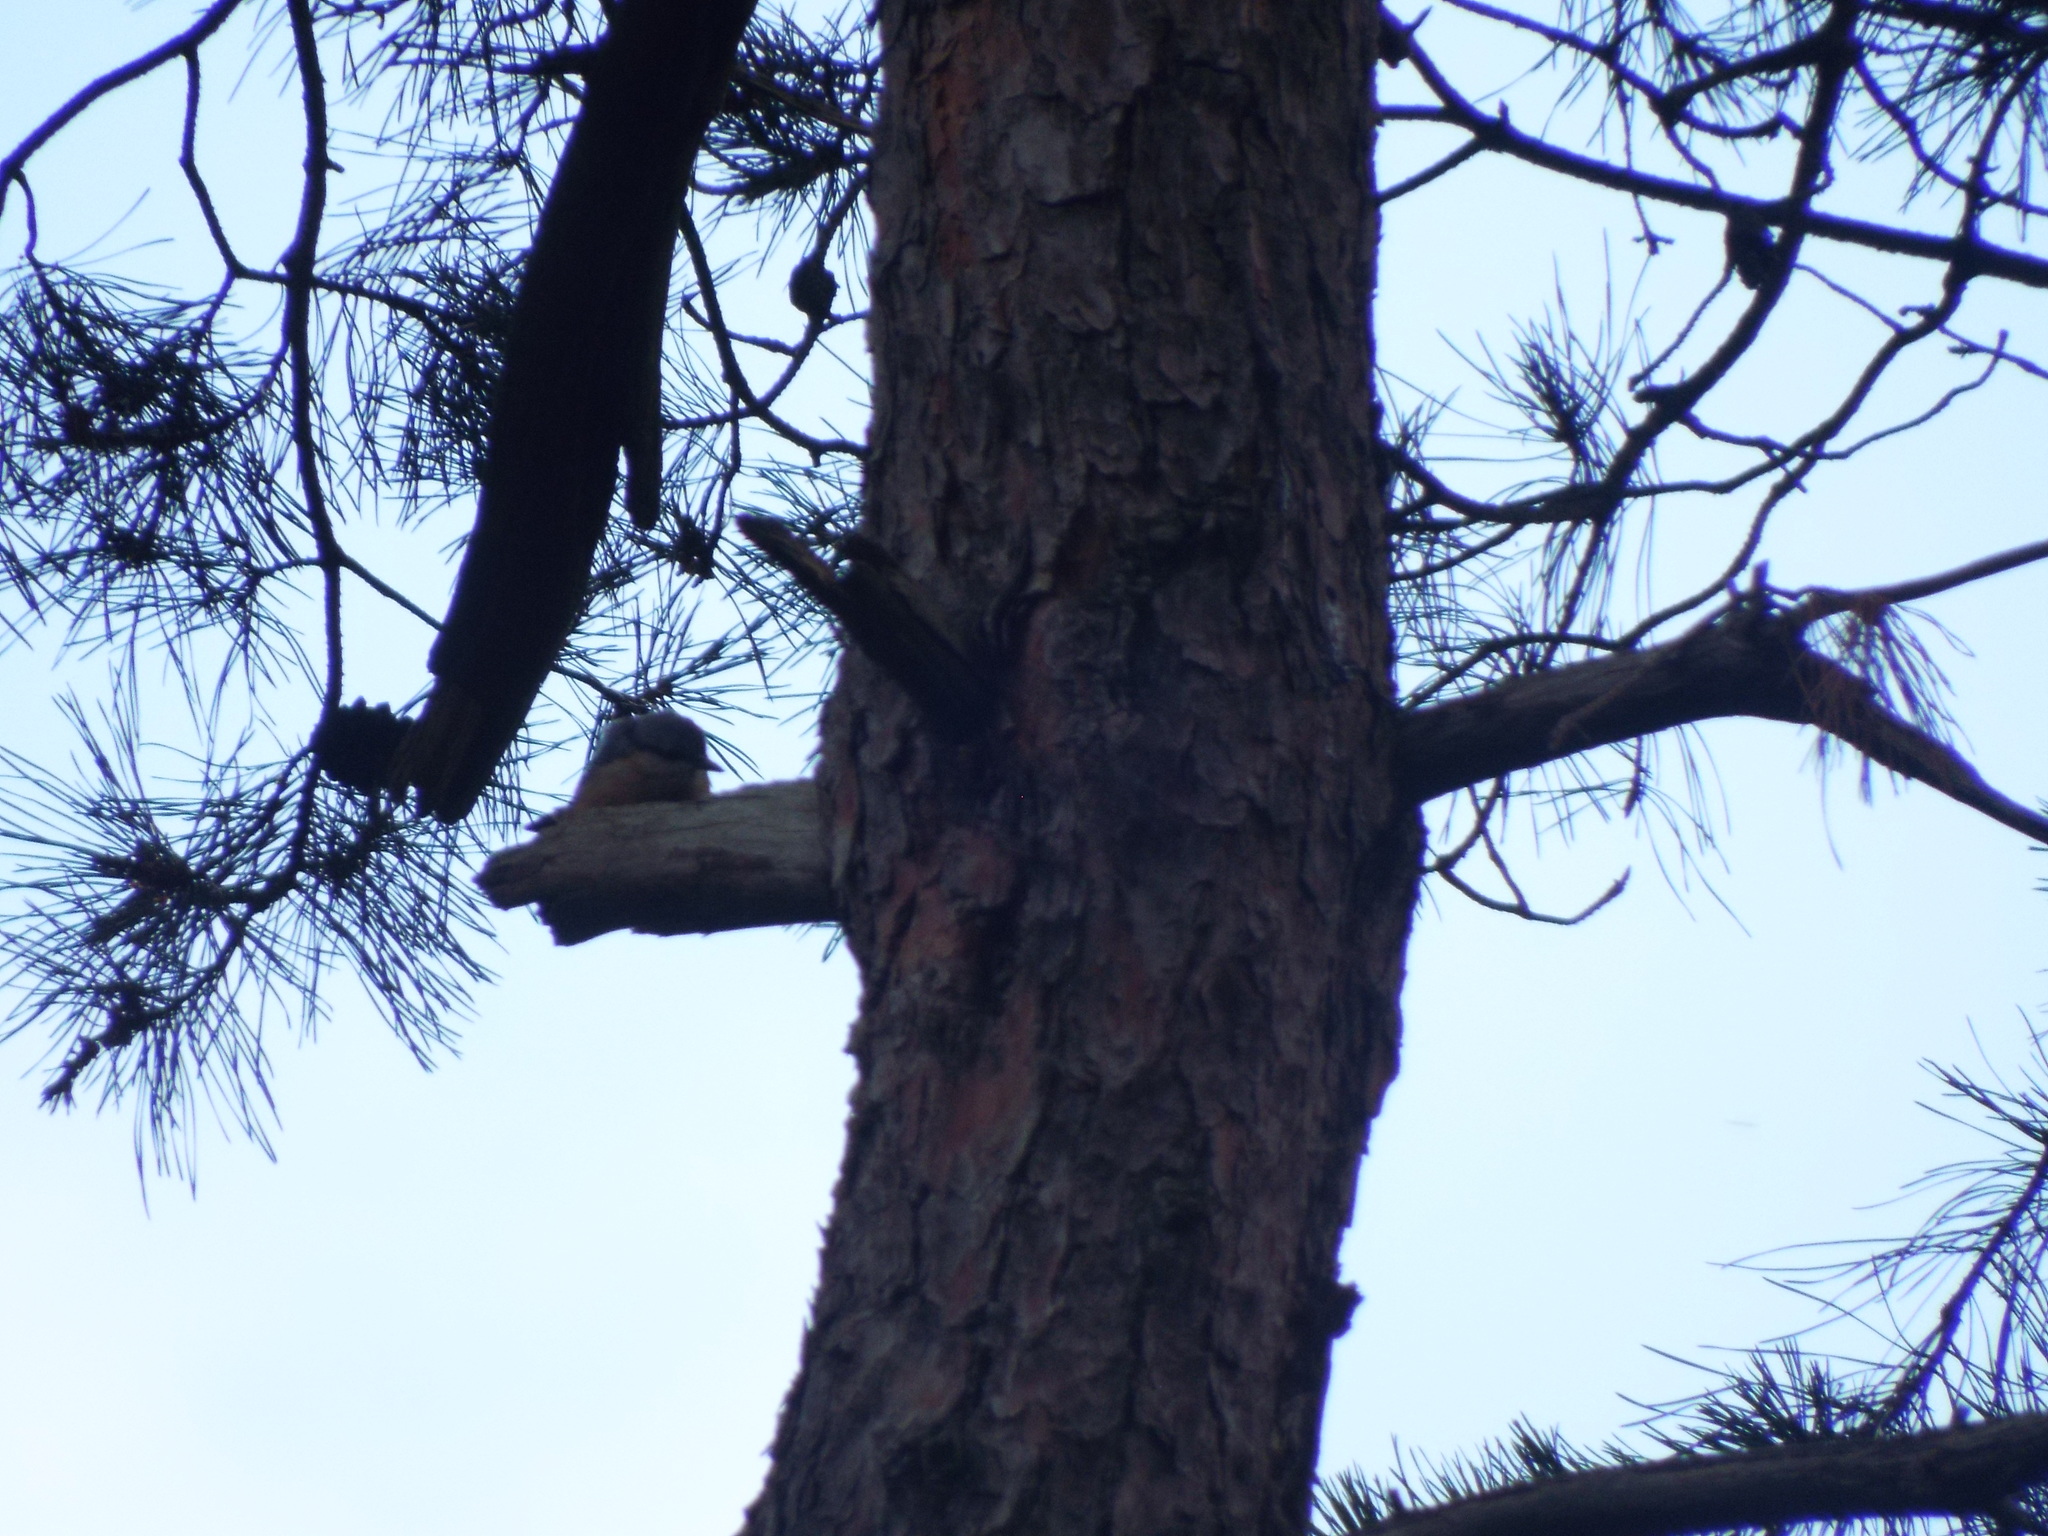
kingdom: Animalia
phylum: Chordata
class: Aves
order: Passeriformes
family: Sittidae
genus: Sitta
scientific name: Sitta europaea
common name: Eurasian nuthatch
